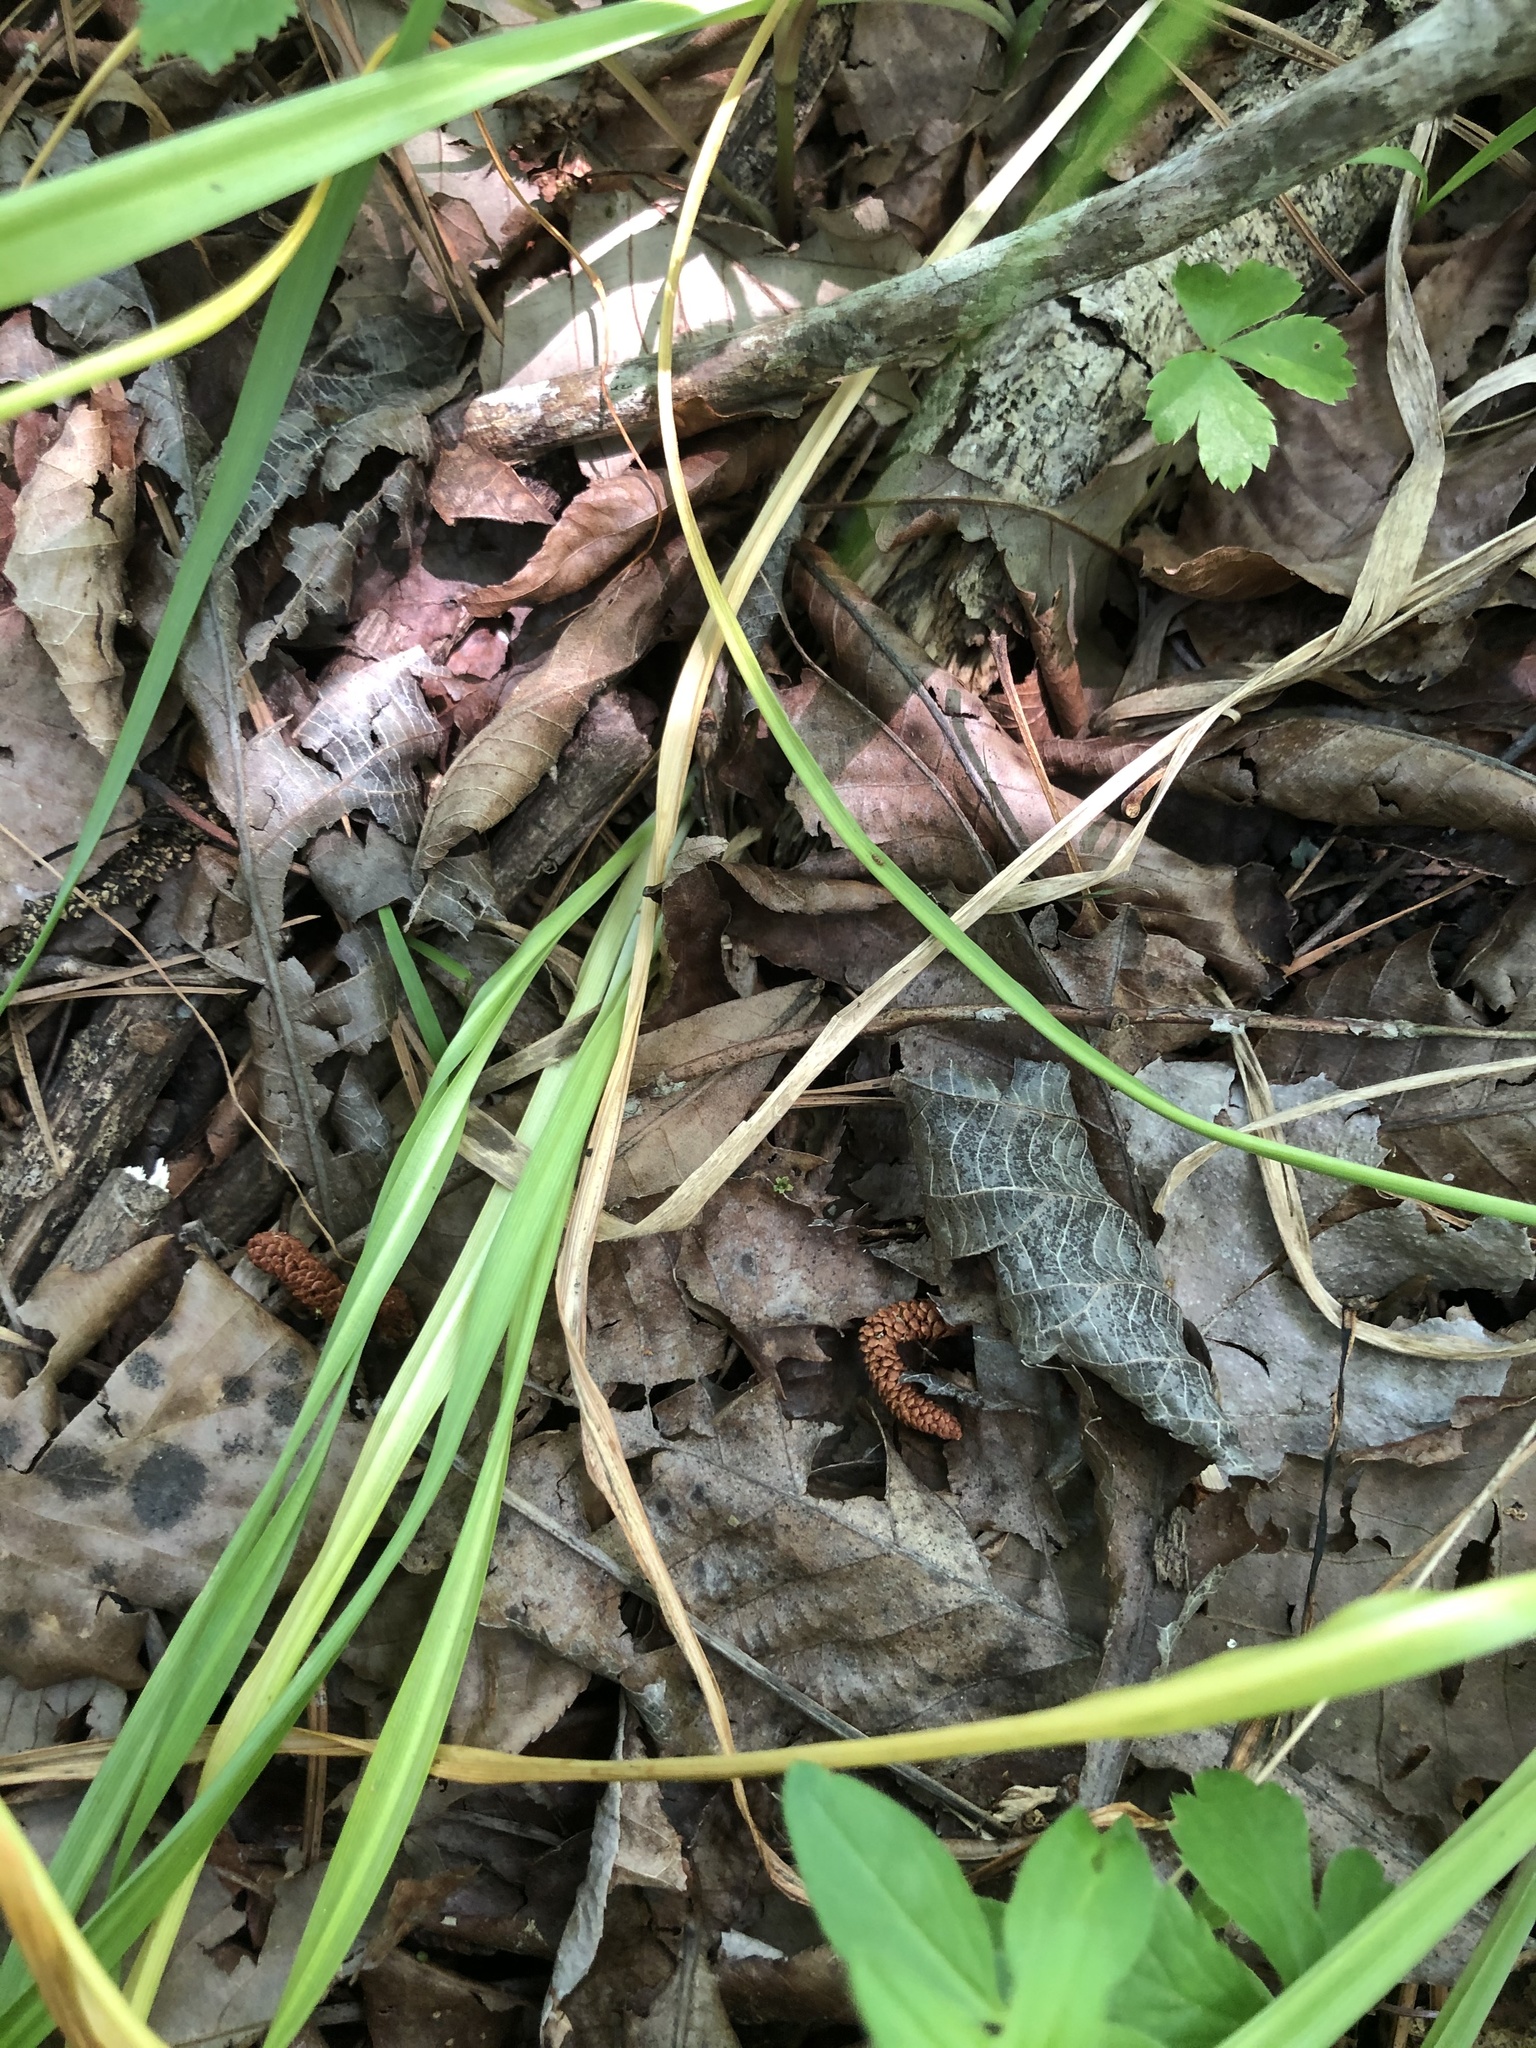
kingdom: Plantae
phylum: Tracheophyta
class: Liliopsida
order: Asparagales
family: Asparagaceae
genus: Camassia
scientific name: Camassia scilloides
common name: Wild hyacinth
